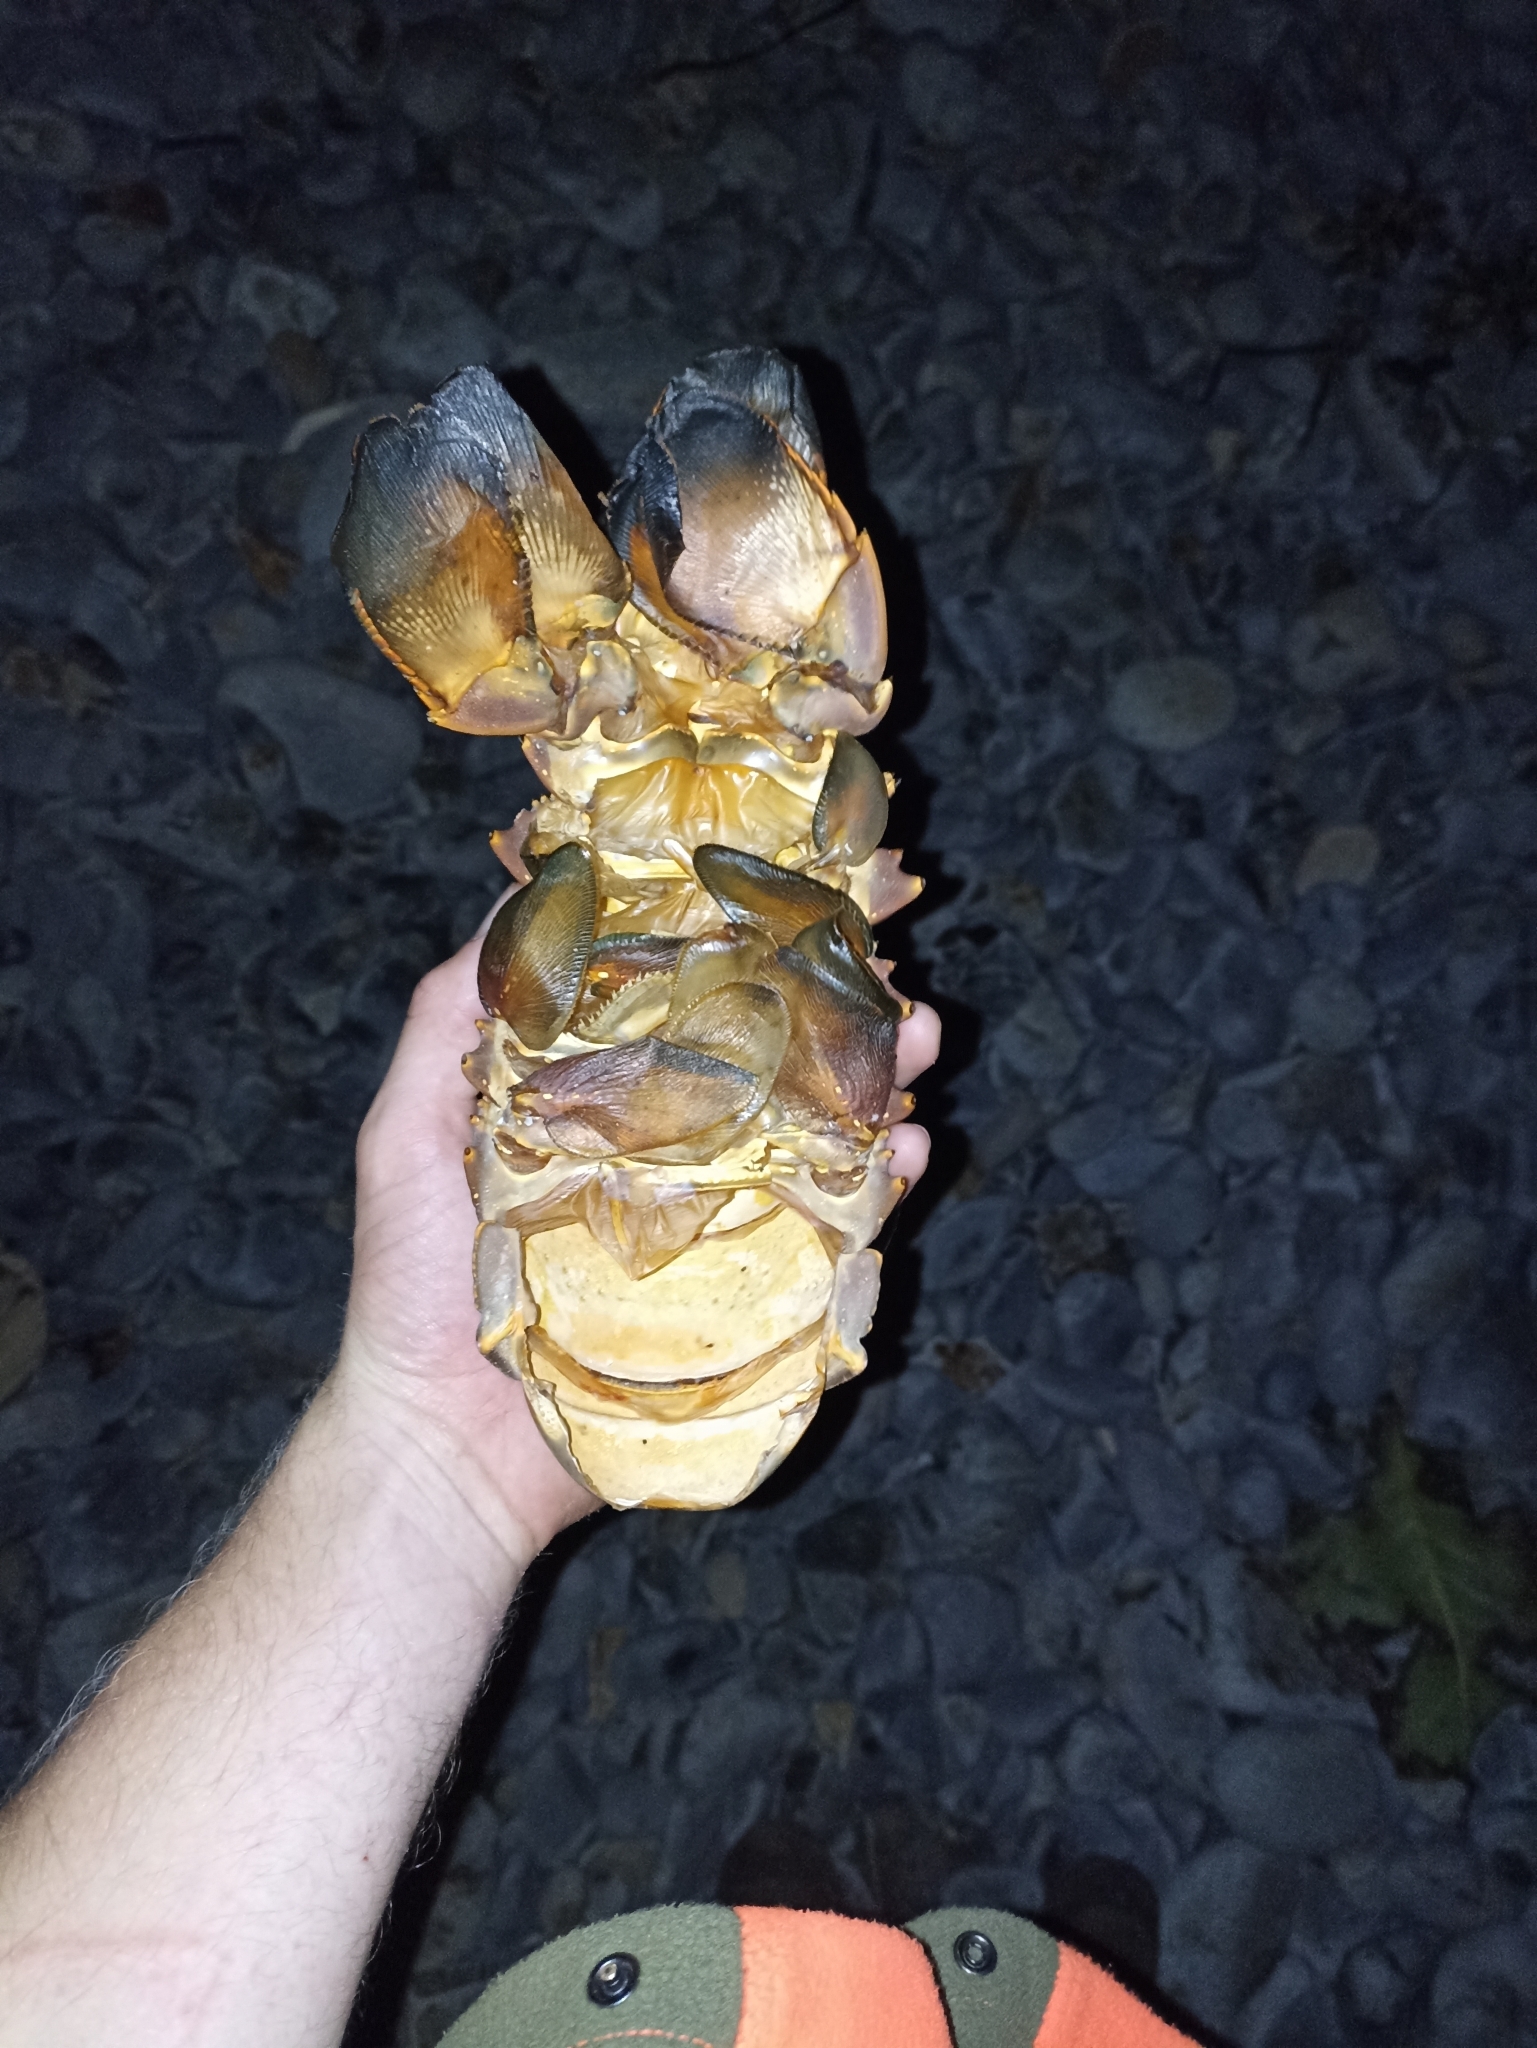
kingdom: Animalia
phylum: Arthropoda
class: Malacostraca
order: Decapoda
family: Palinuridae
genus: Sagmariasus
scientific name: Sagmariasus verreauxi
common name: Green rock lobster
